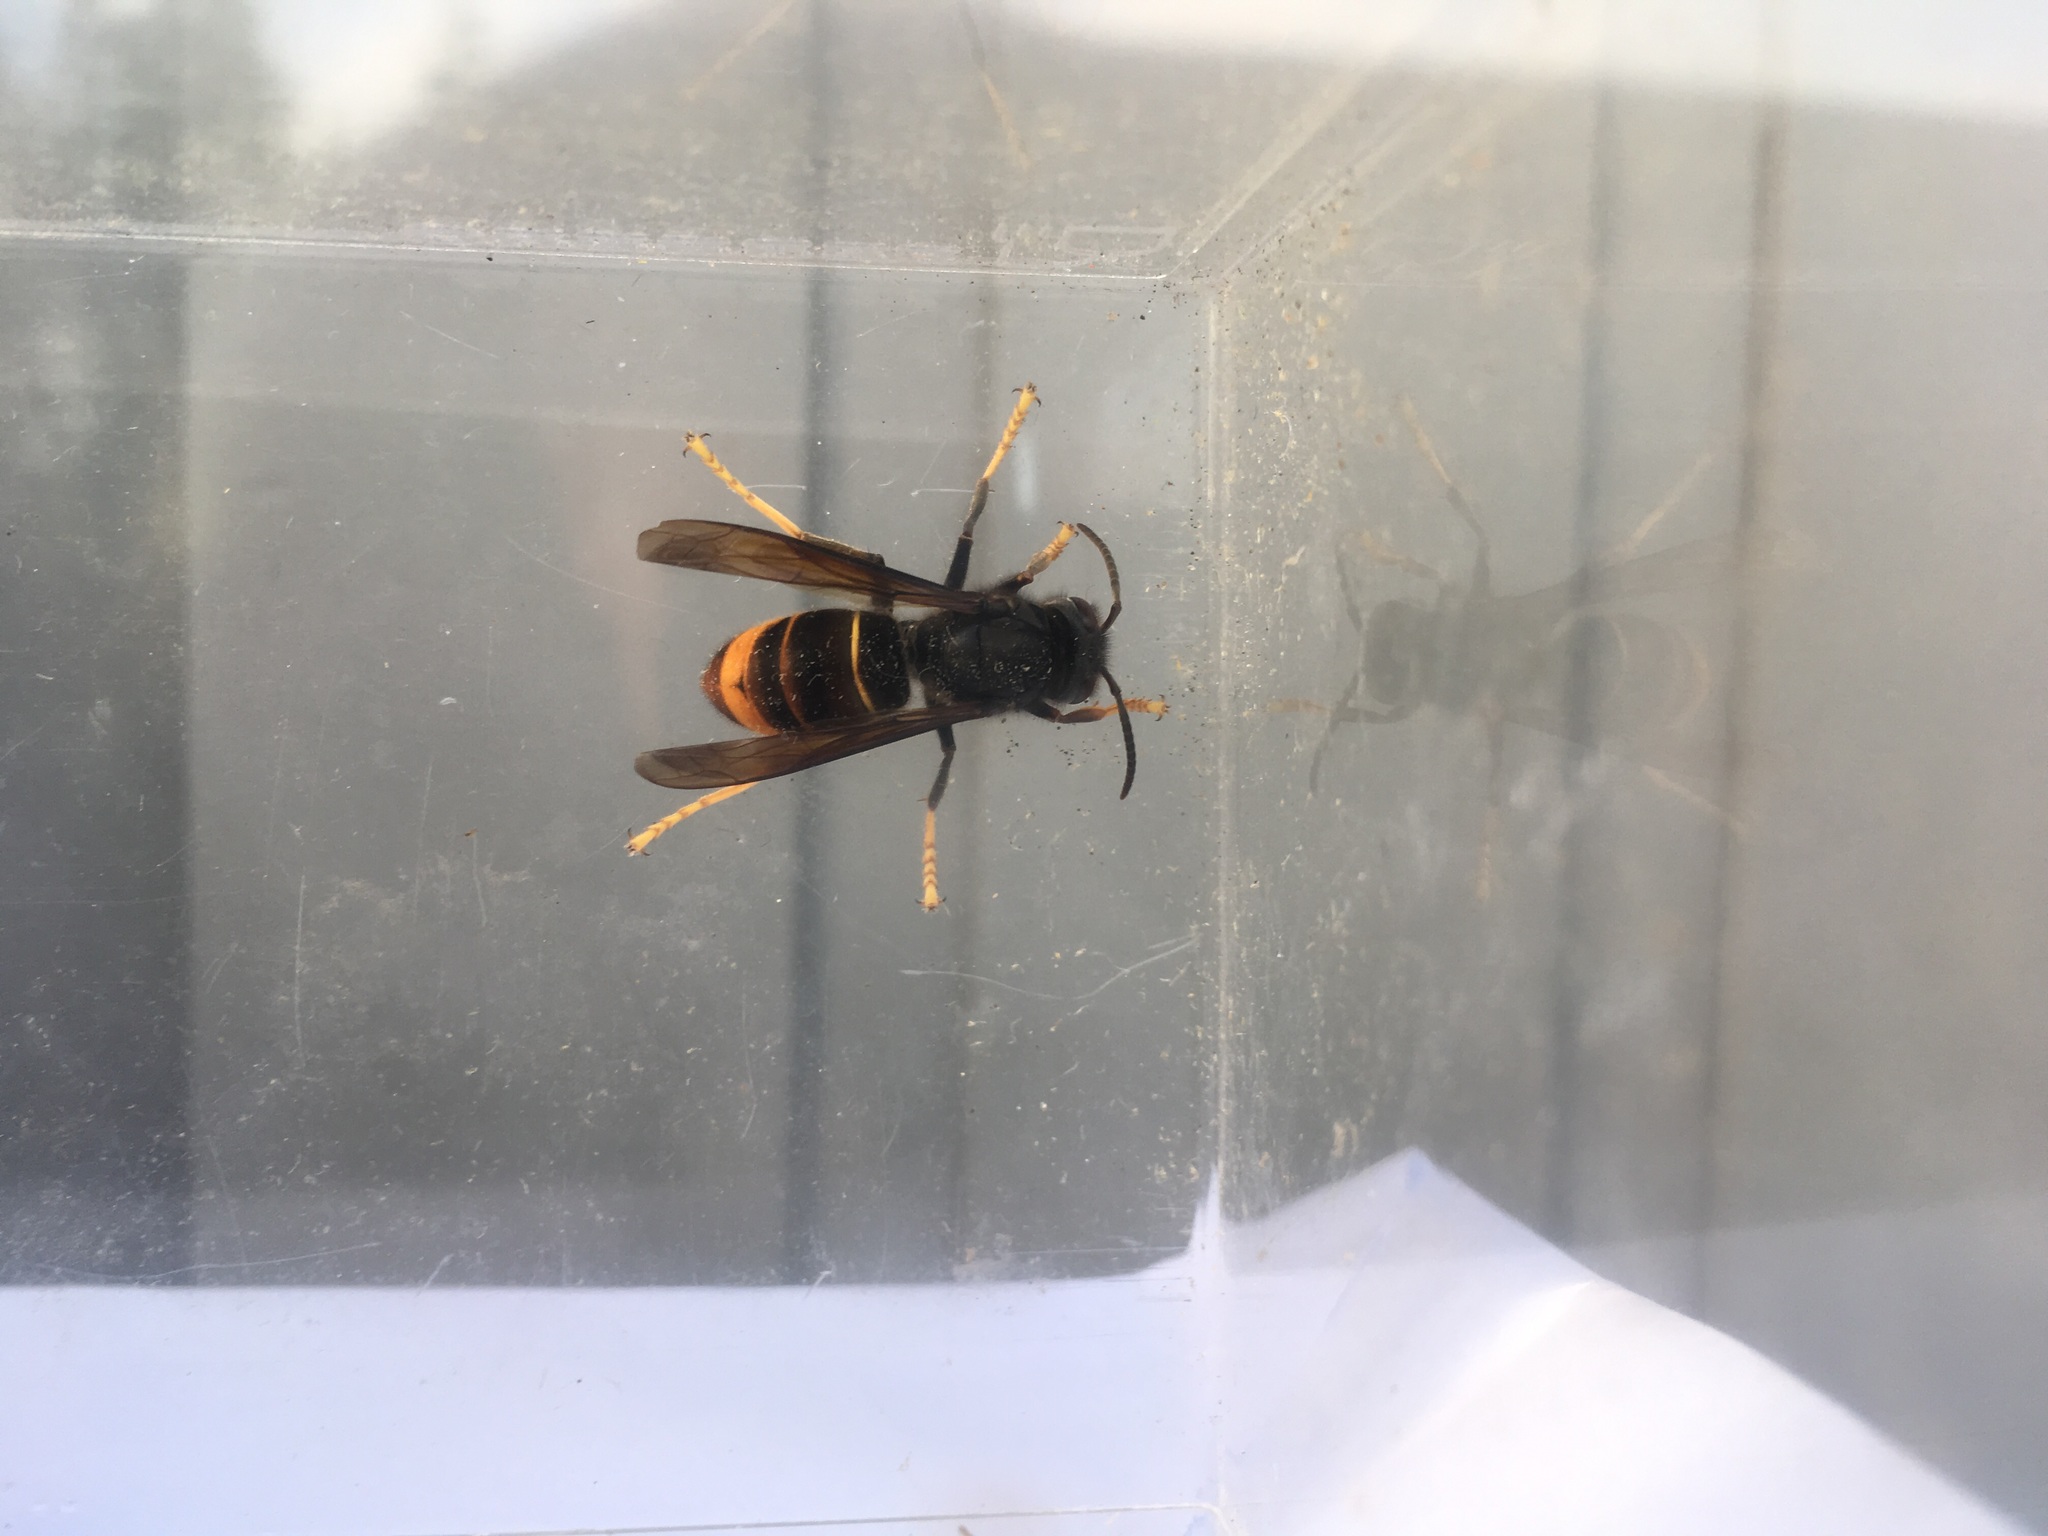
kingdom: Animalia
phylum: Arthropoda
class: Insecta
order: Hymenoptera
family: Vespidae
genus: Vespa
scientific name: Vespa velutina
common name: Asian hornet
